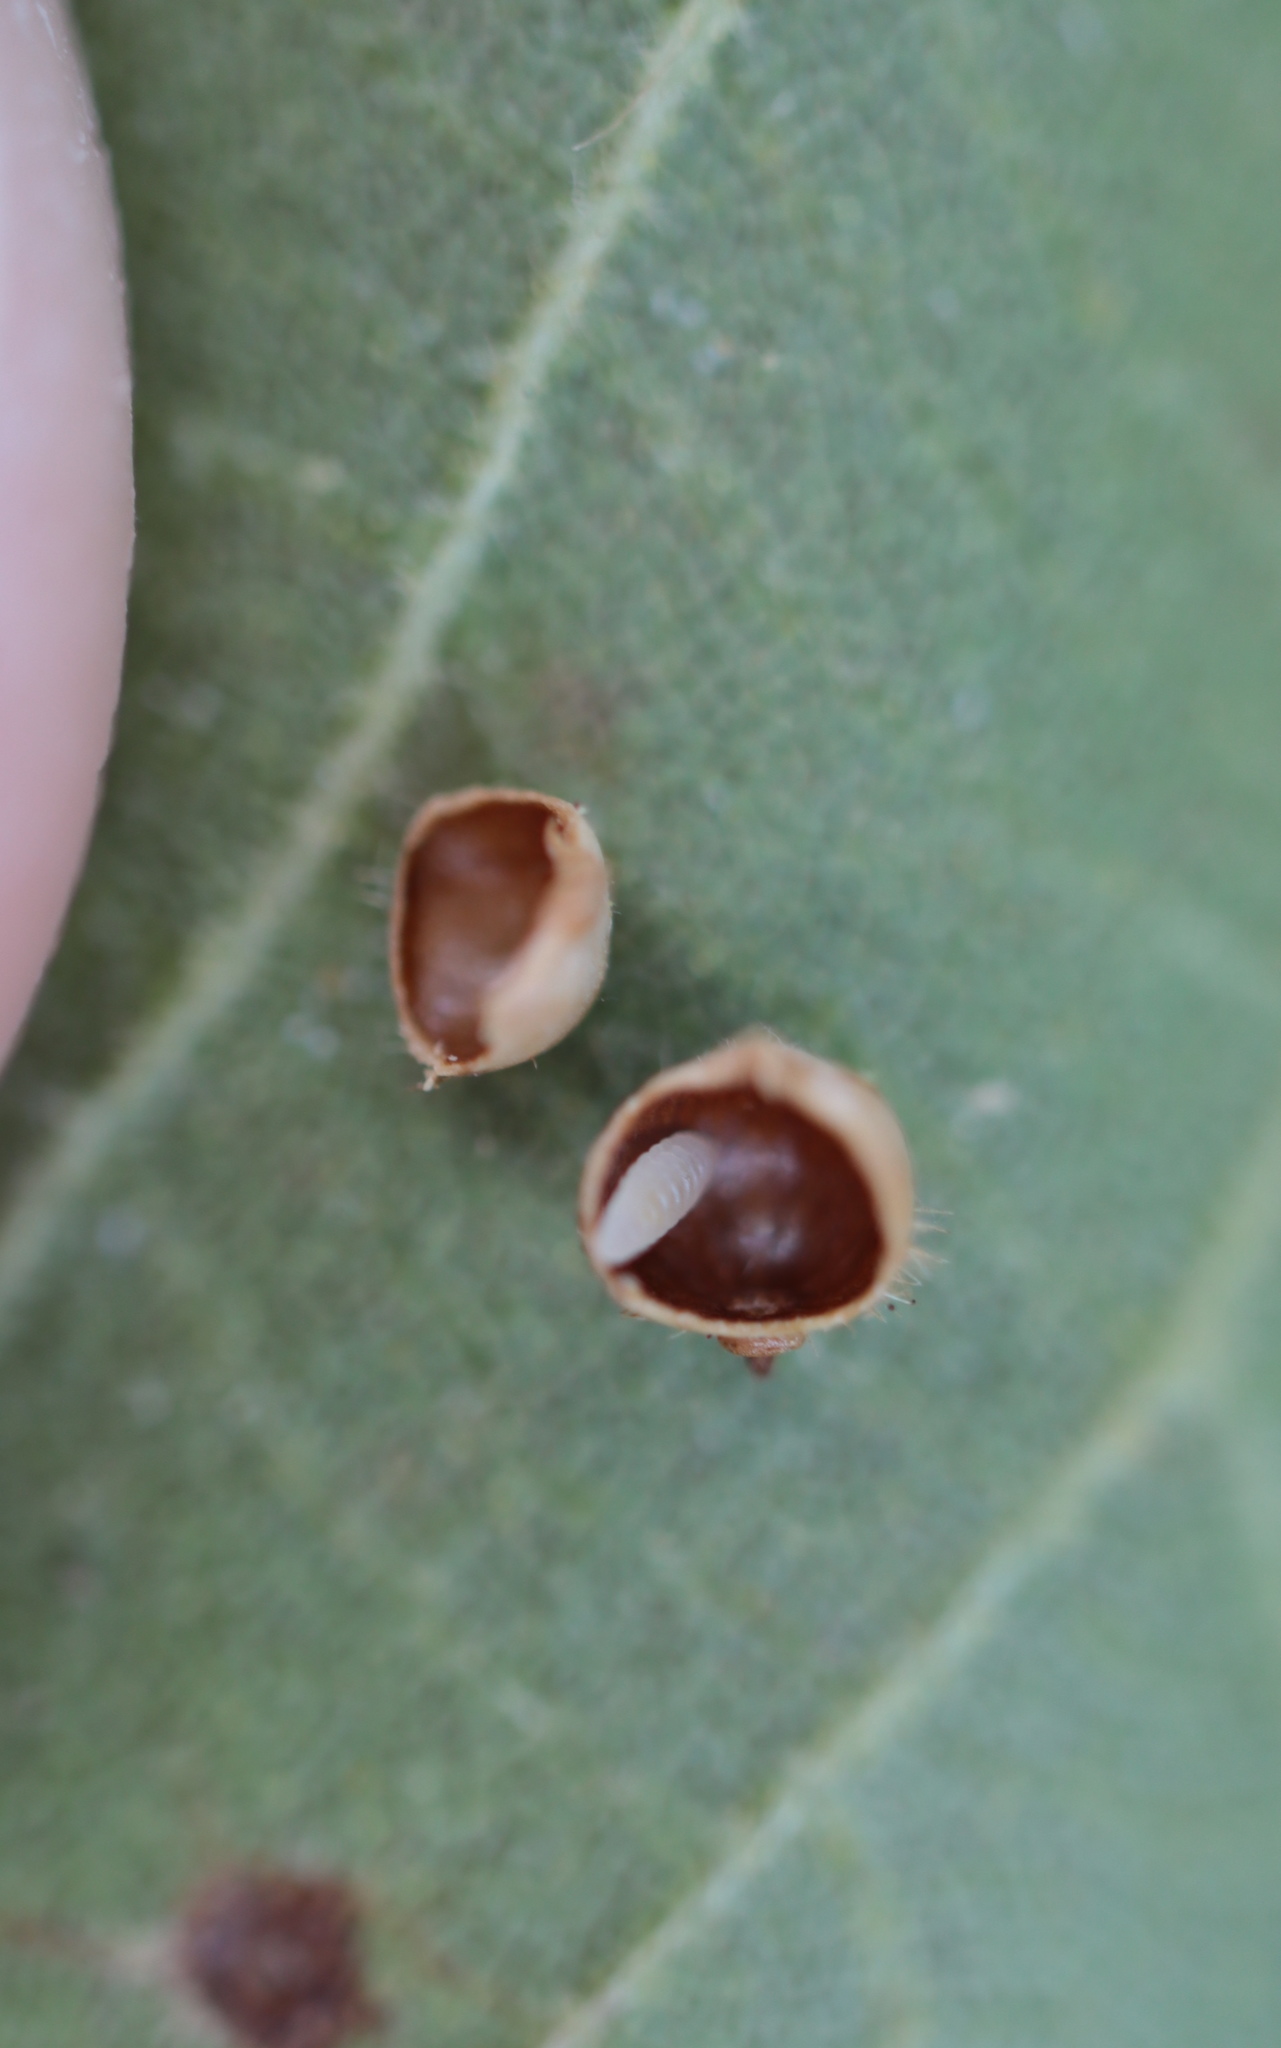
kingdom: Animalia
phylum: Arthropoda
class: Insecta
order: Diptera
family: Cecidomyiidae
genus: Caryomyia
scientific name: Caryomyia spiniglobus
